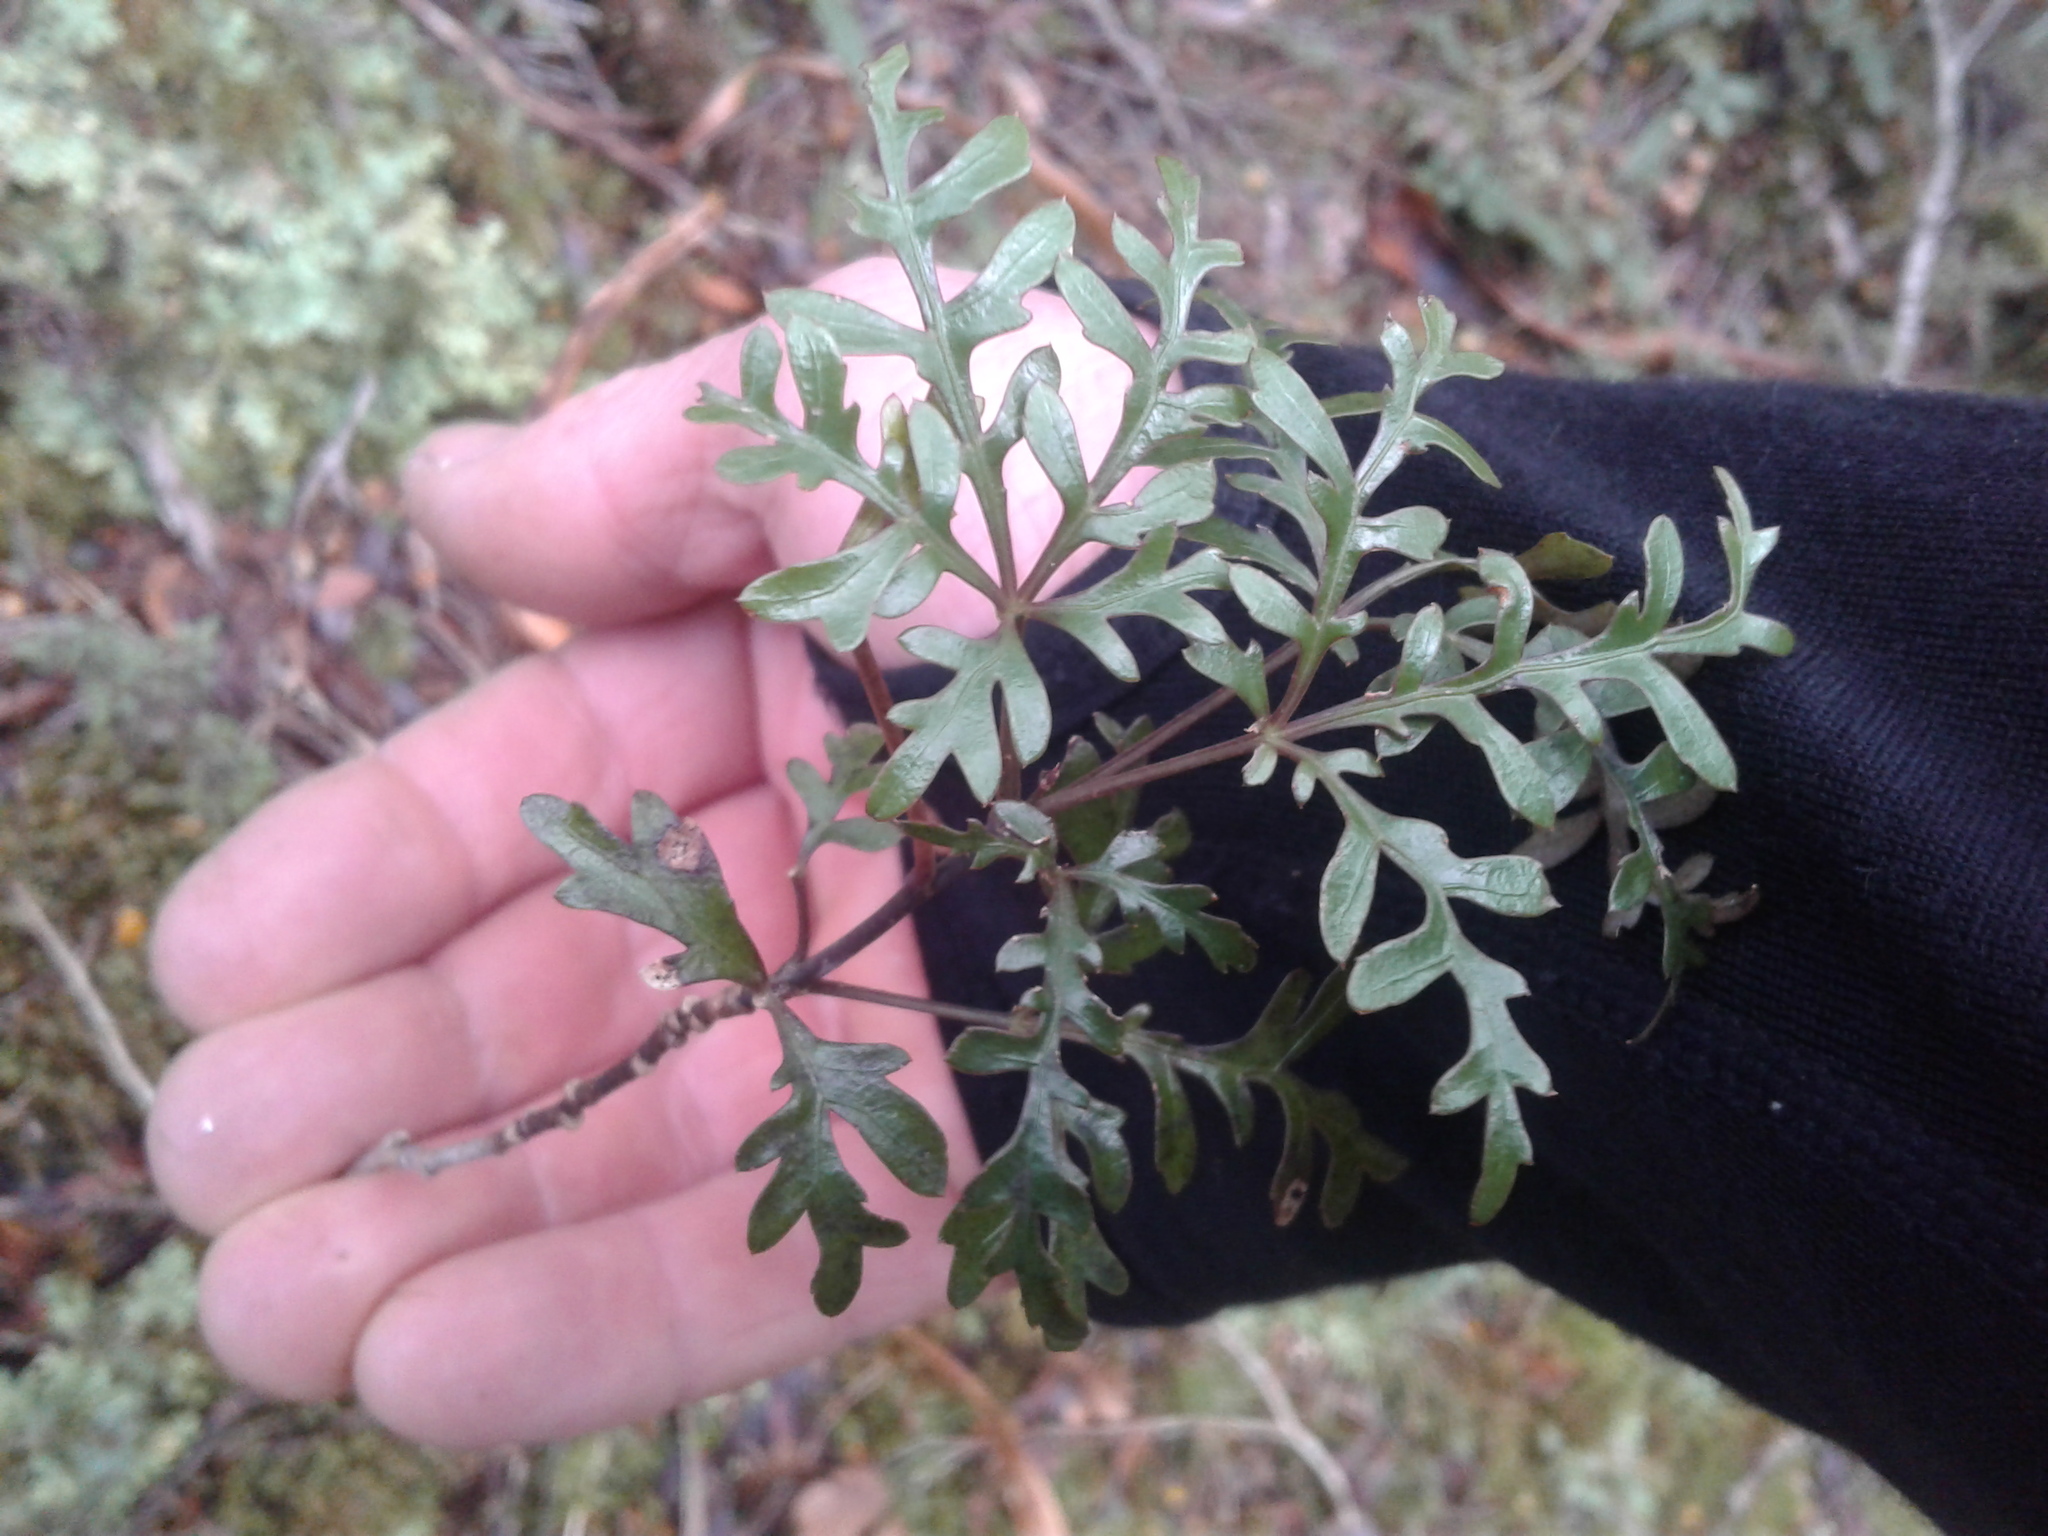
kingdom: Plantae
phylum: Tracheophyta
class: Magnoliopsida
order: Apiales
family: Araliaceae
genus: Raukaua
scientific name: Raukaua simplex
